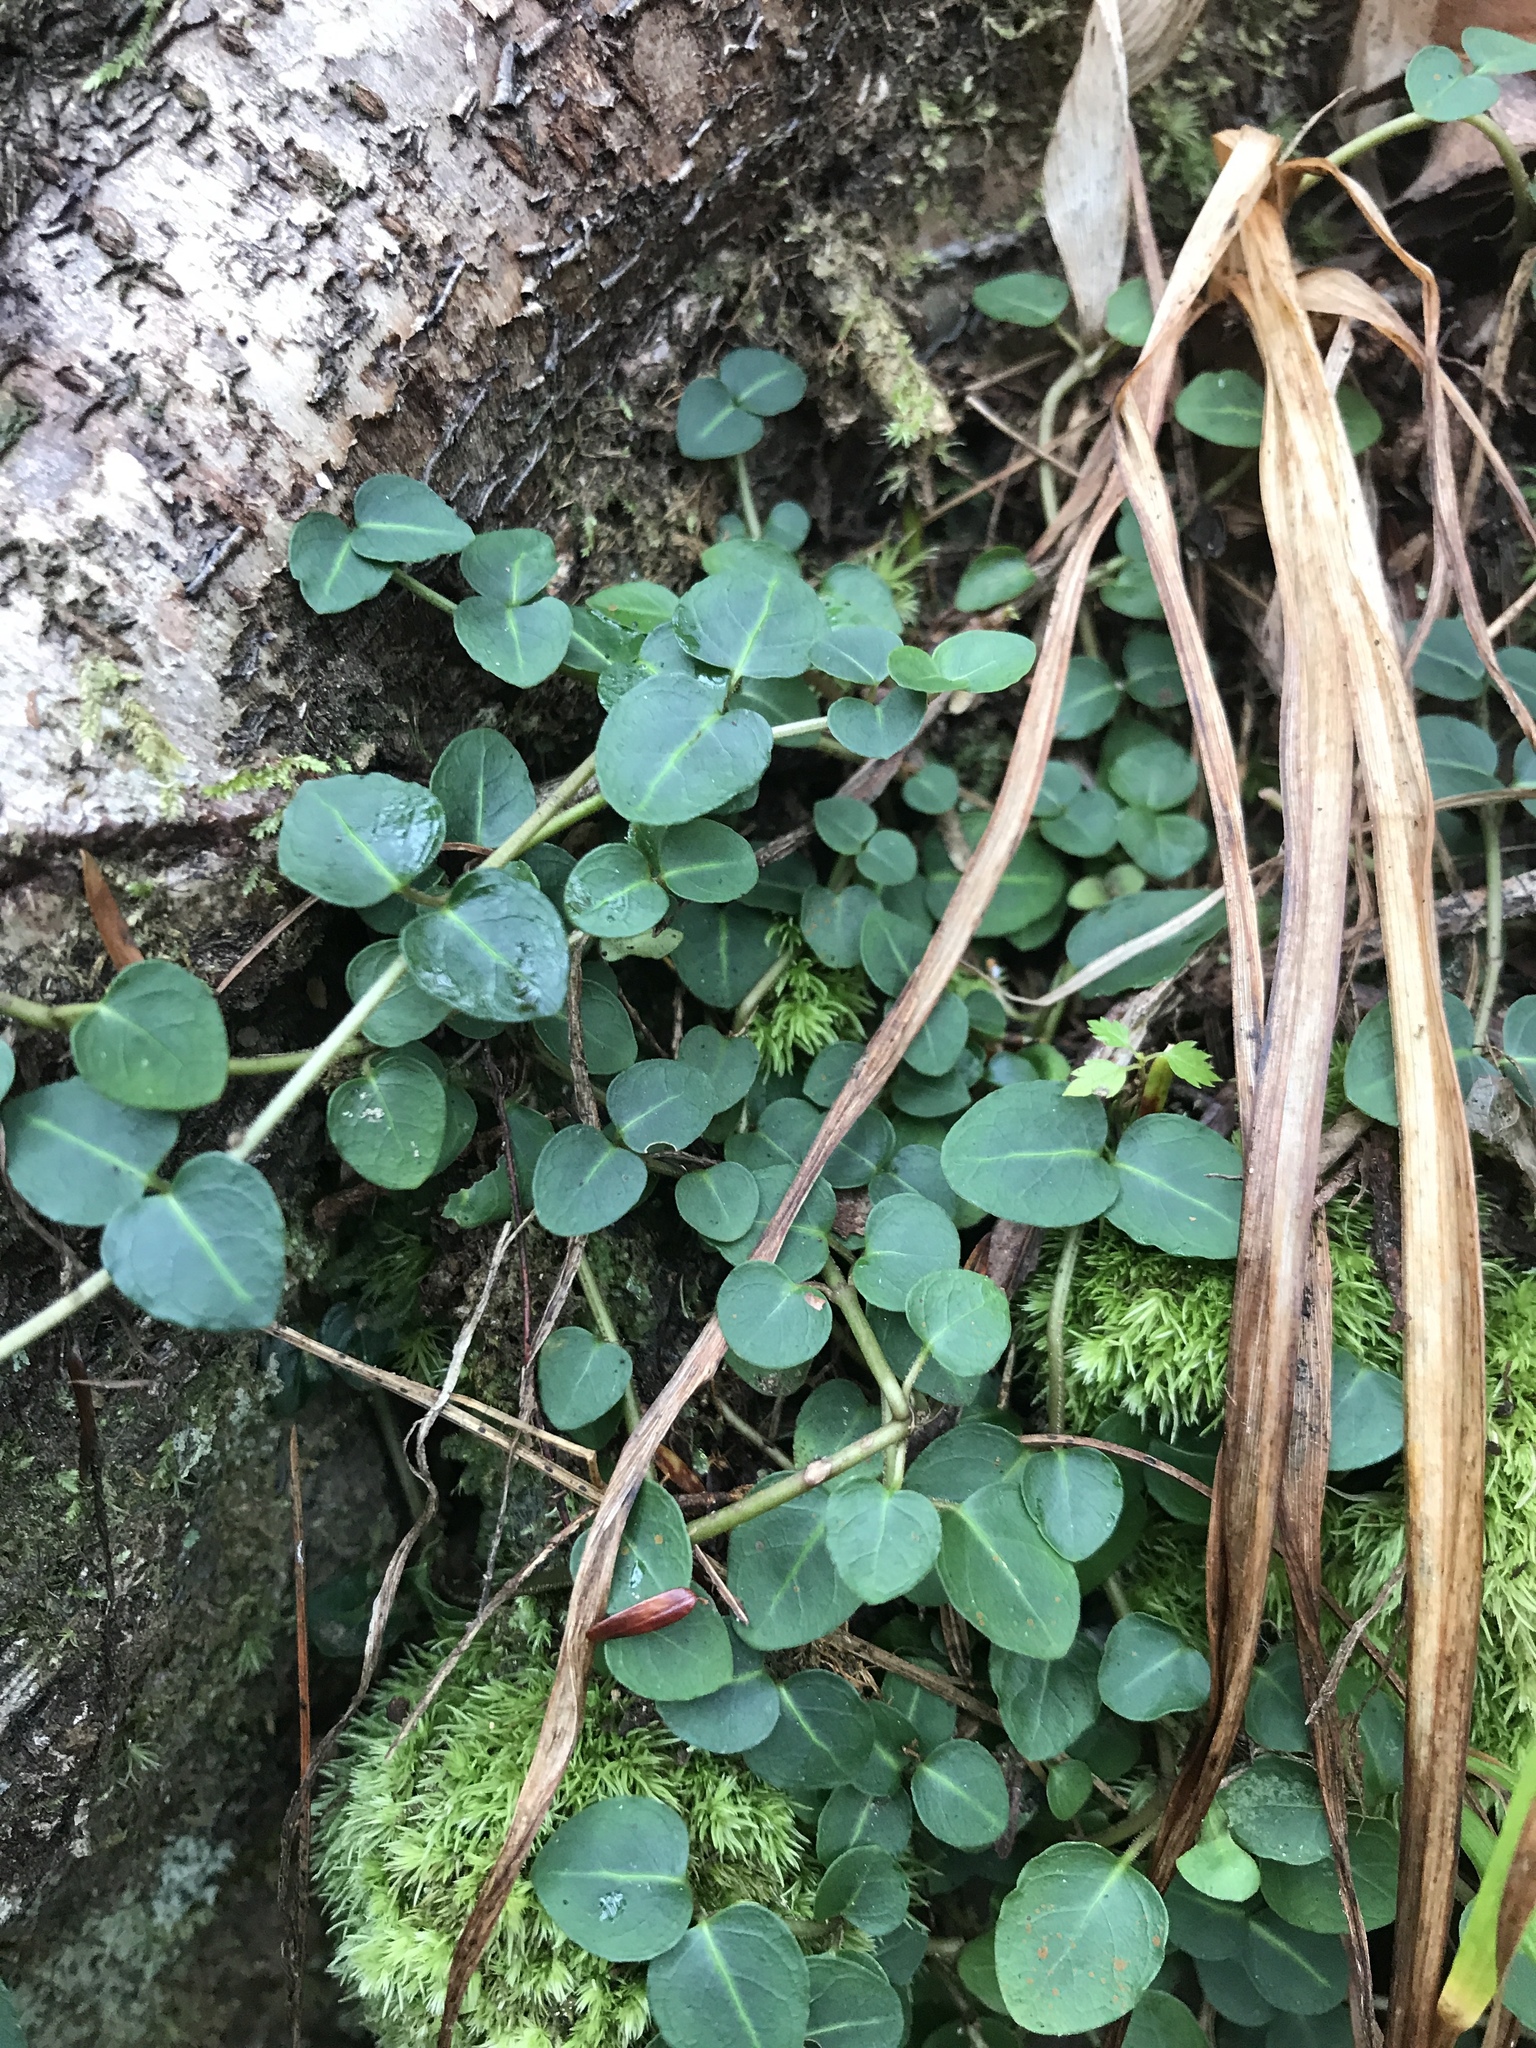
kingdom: Plantae
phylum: Tracheophyta
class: Magnoliopsida
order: Gentianales
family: Rubiaceae
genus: Mitchella
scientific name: Mitchella repens
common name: Partridge-berry
